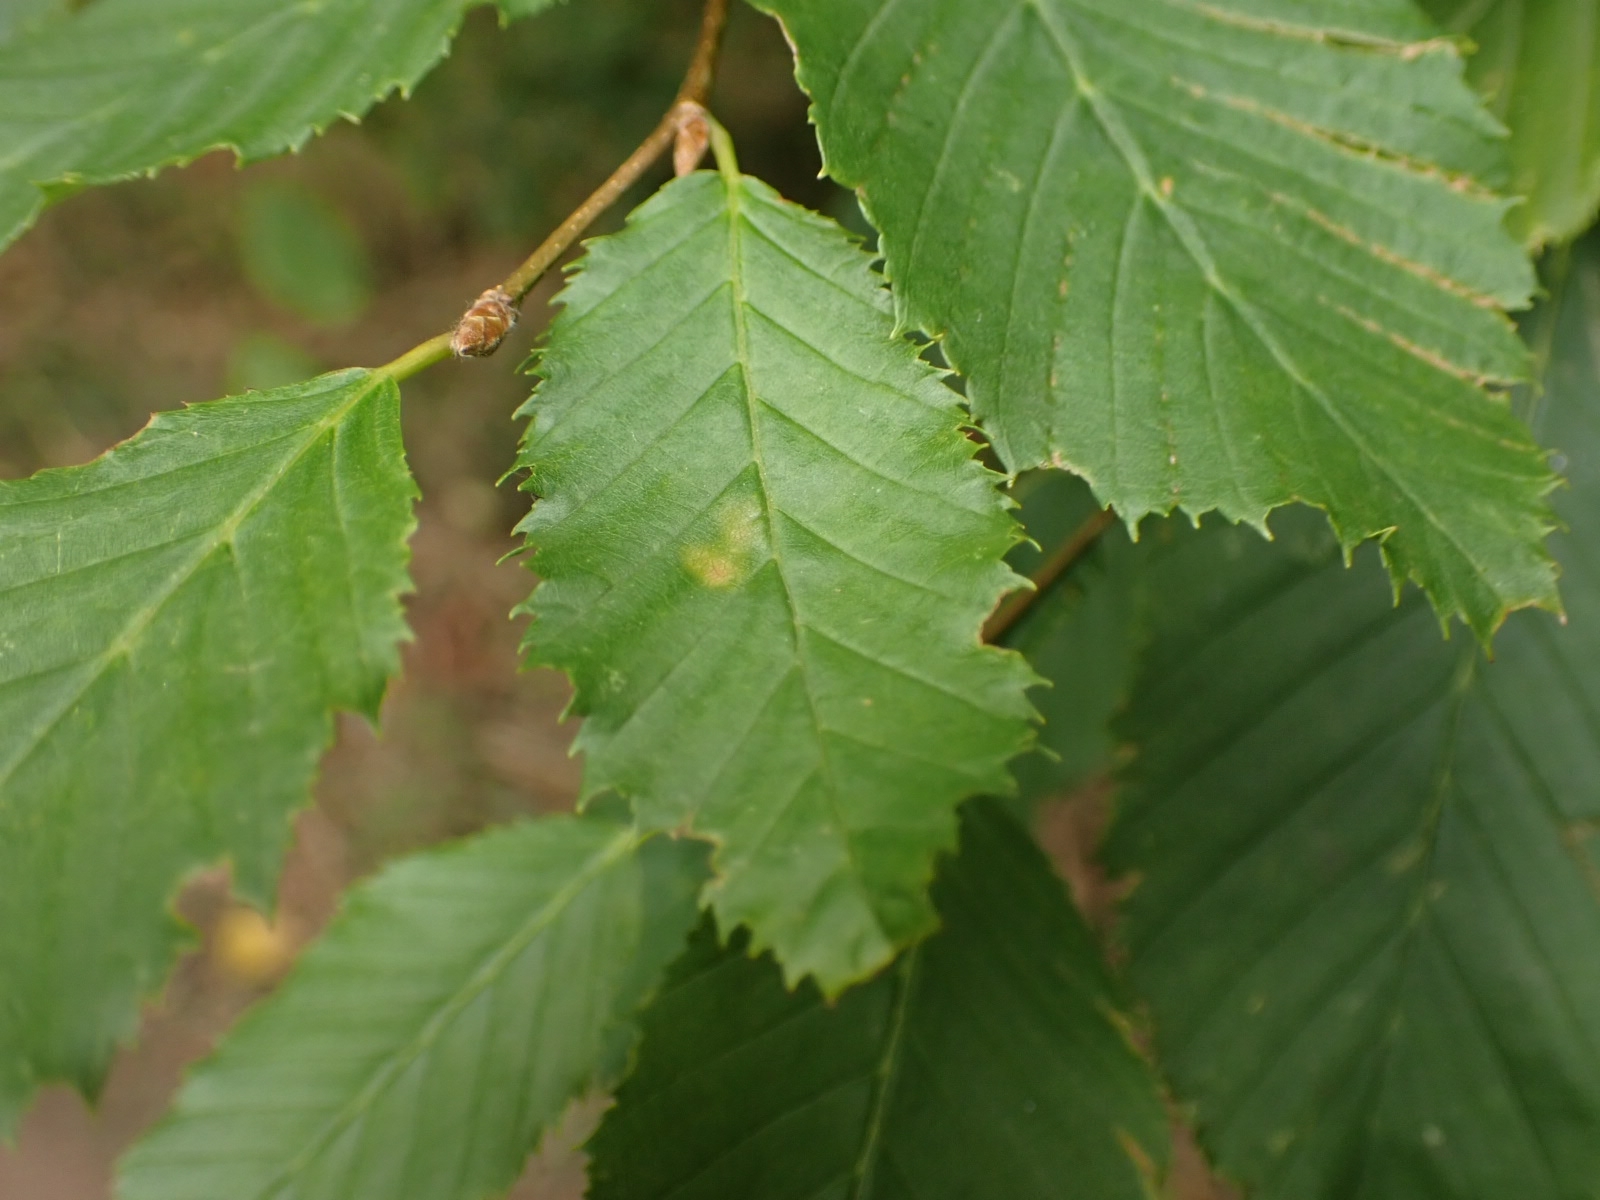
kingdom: Plantae
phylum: Tracheophyta
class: Magnoliopsida
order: Fagales
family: Betulaceae
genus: Carpinus
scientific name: Carpinus betulus
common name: Hornbeam
